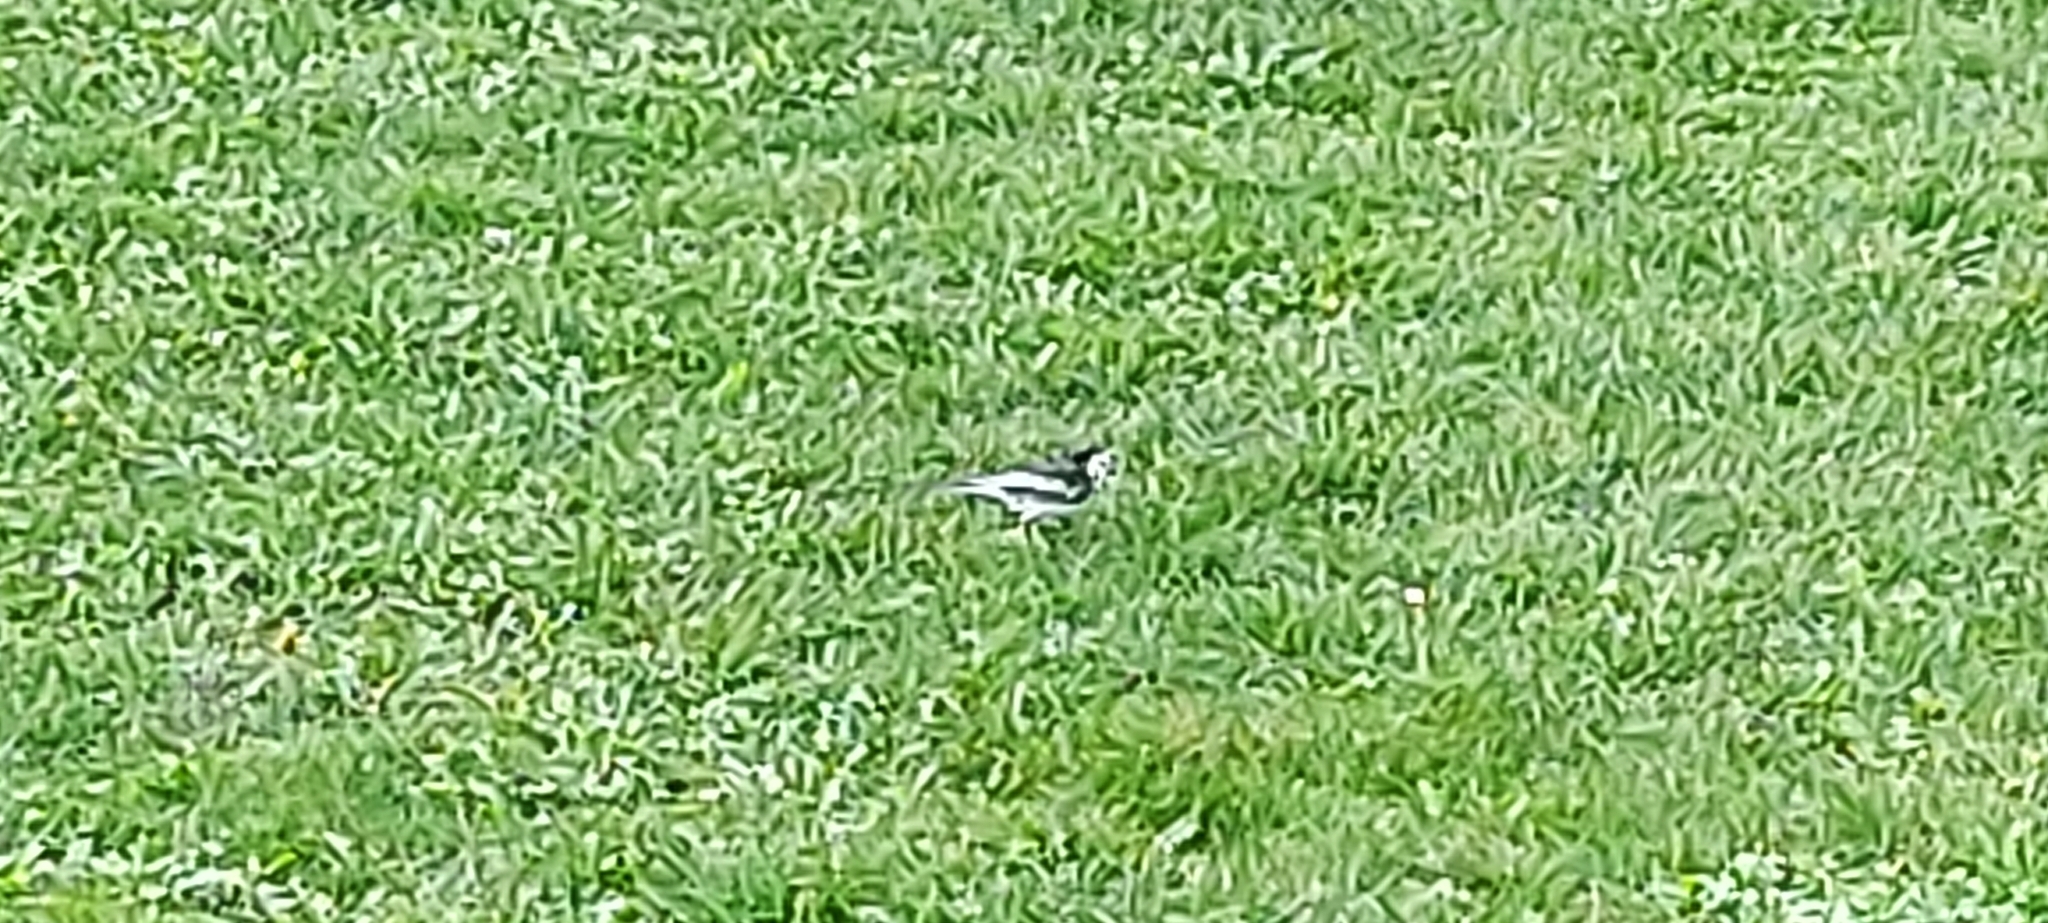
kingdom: Animalia
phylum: Chordata
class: Aves
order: Passeriformes
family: Motacillidae
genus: Motacilla
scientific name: Motacilla alba
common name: White wagtail
